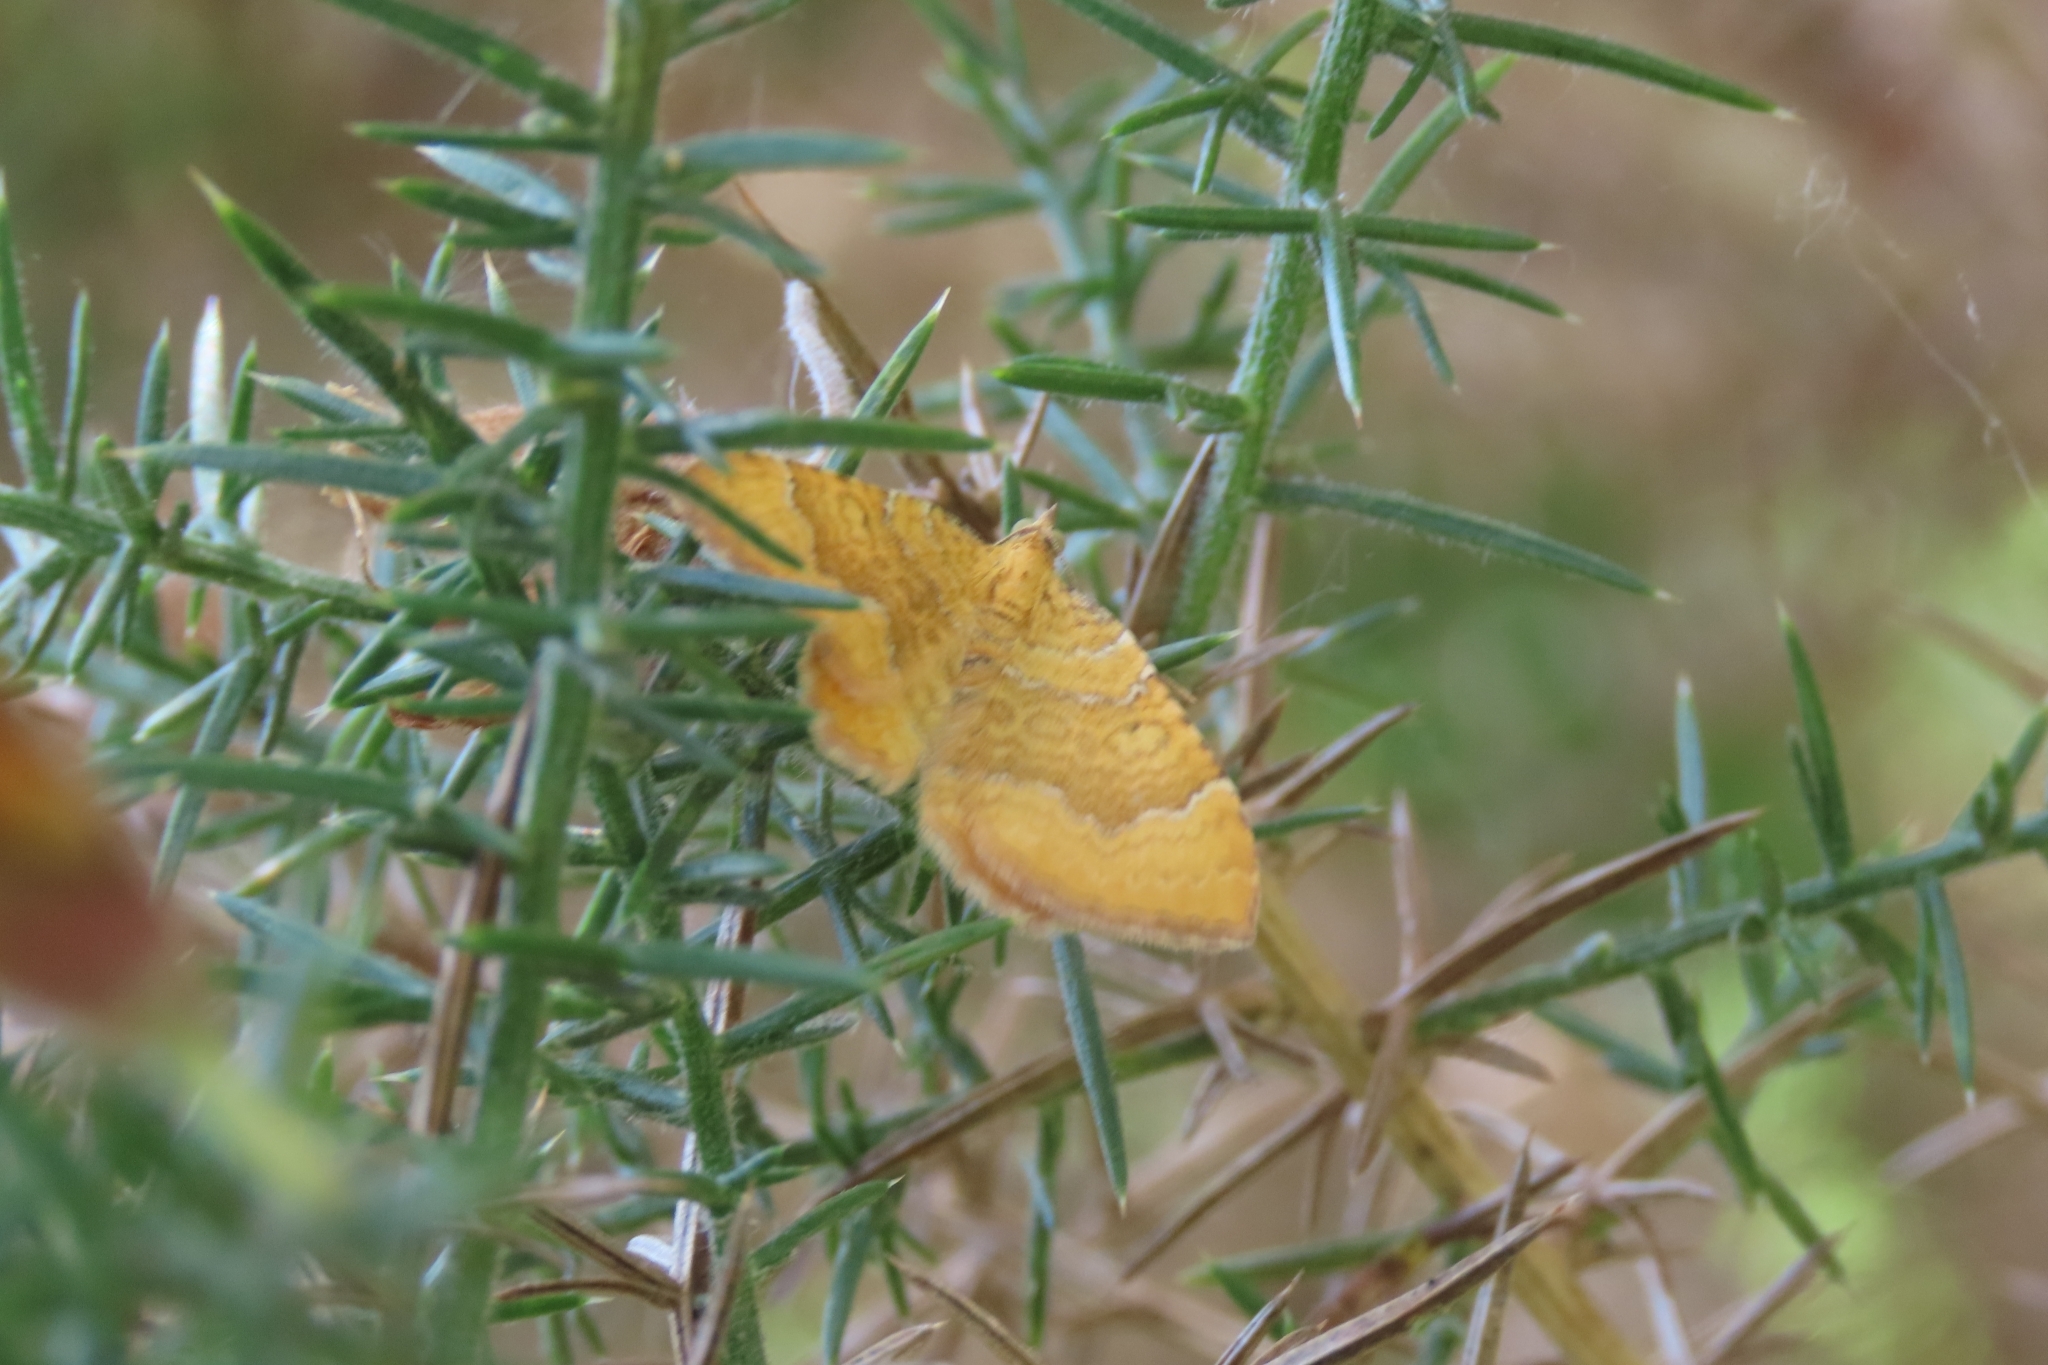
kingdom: Animalia
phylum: Arthropoda
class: Insecta
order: Lepidoptera
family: Geometridae
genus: Camptogramma
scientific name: Camptogramma bilineata
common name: Yellow shell
